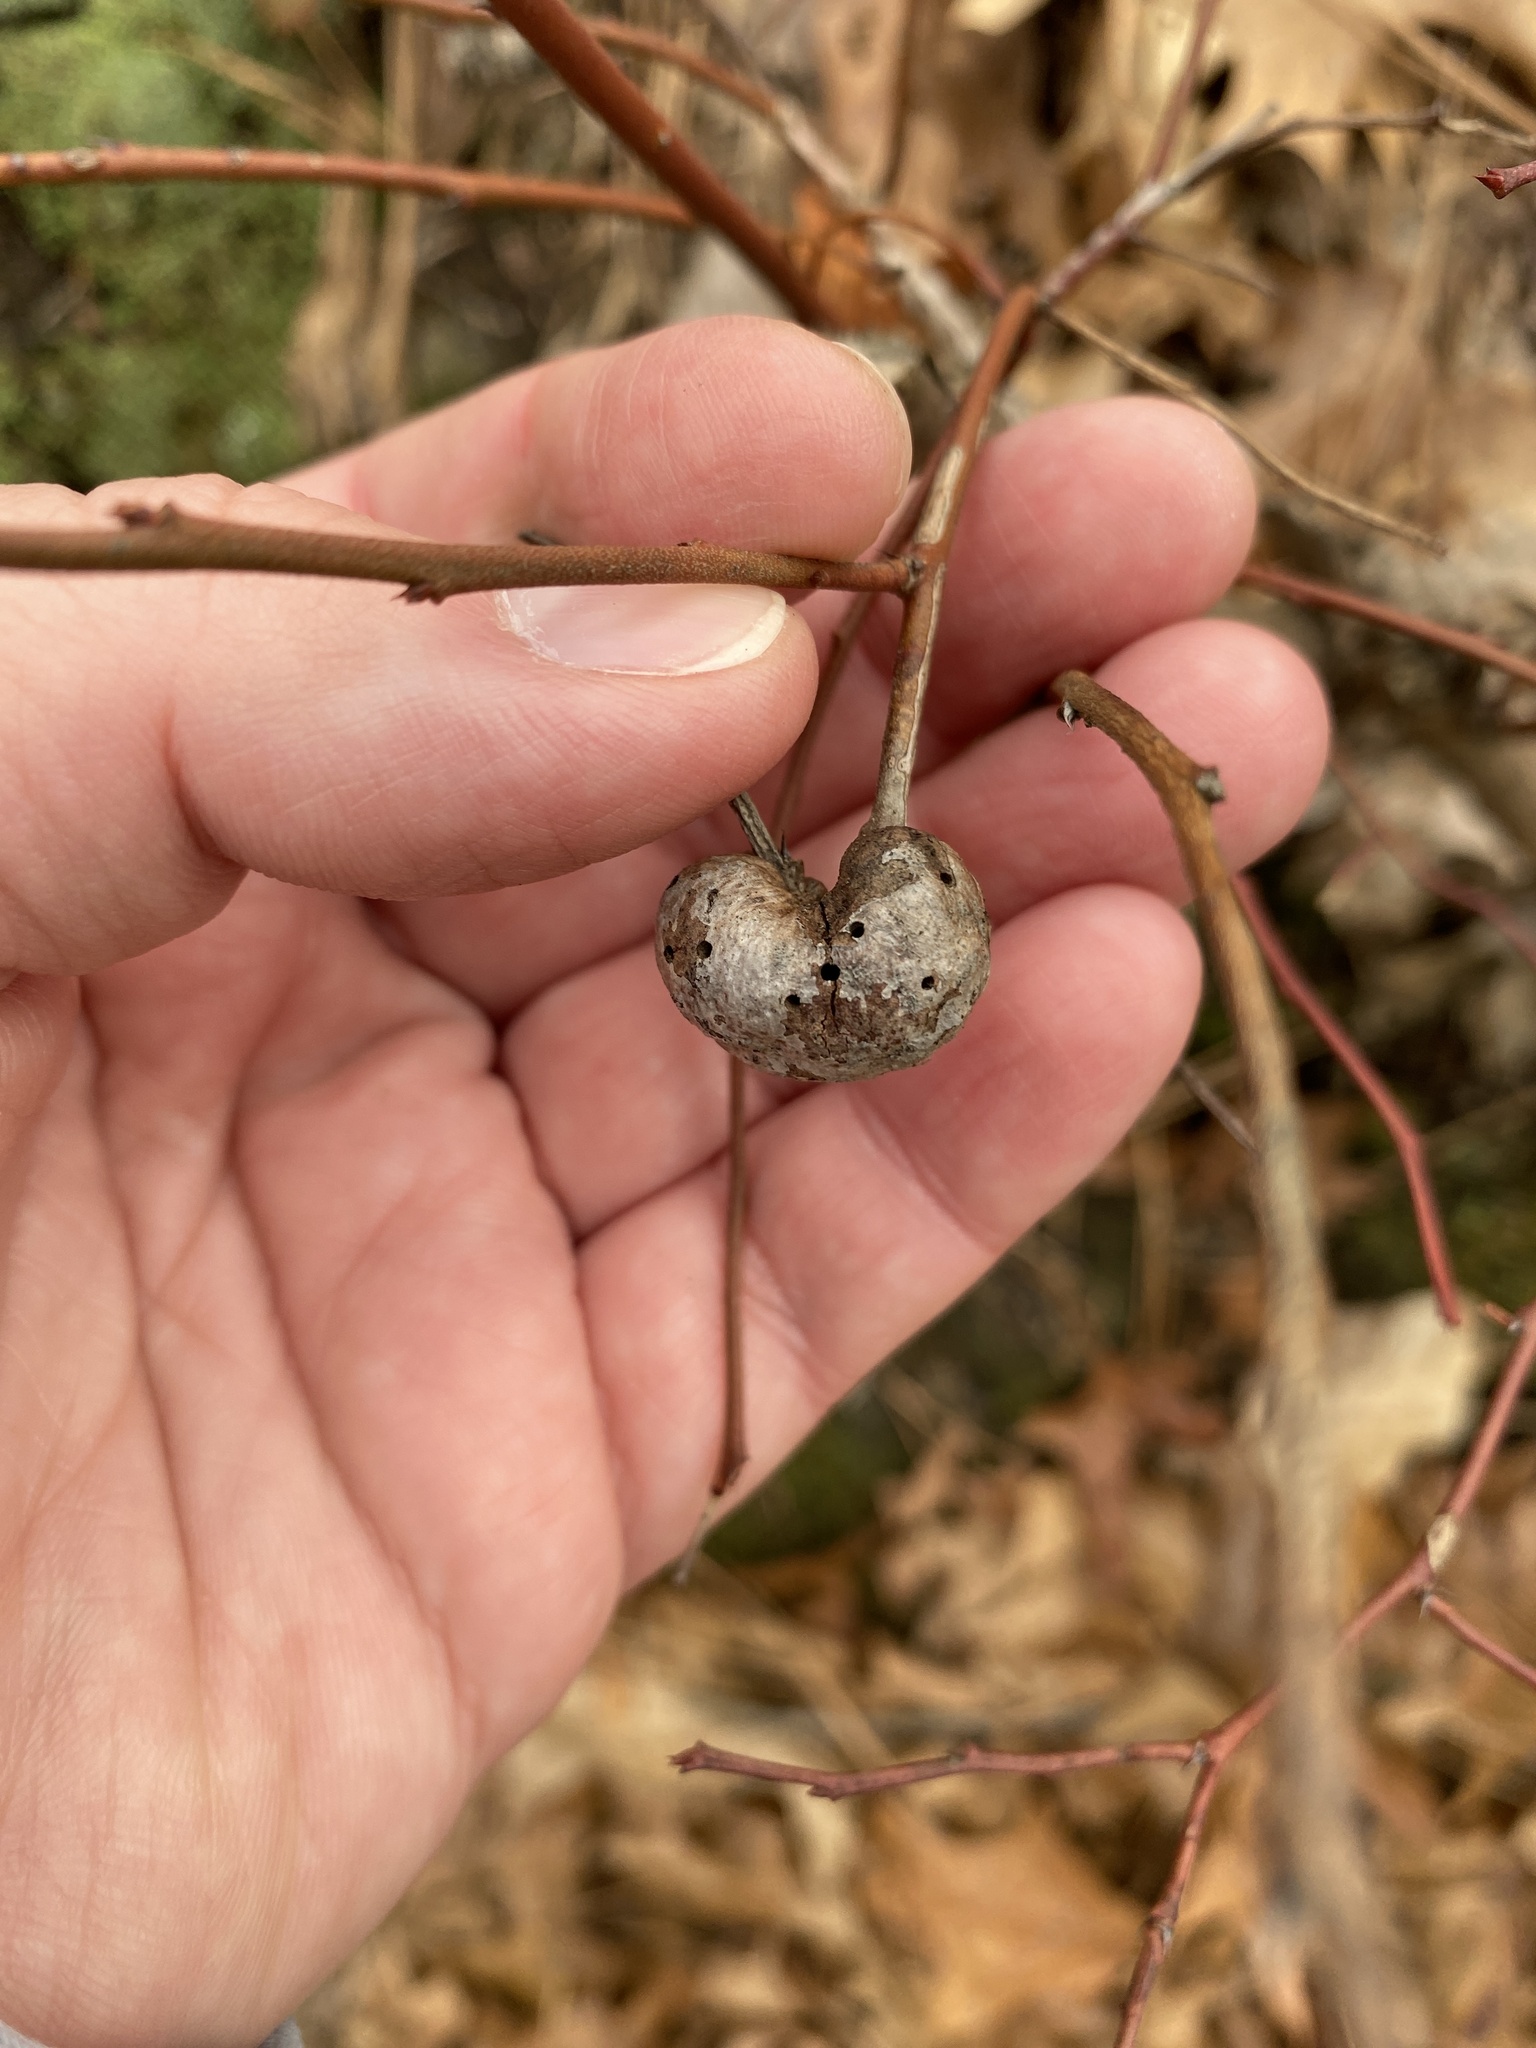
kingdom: Animalia
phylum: Arthropoda
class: Insecta
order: Hymenoptera
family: Pteromalidae
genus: Hemadas
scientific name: Hemadas nubilipennis
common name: Blueberry stem gall wasp
